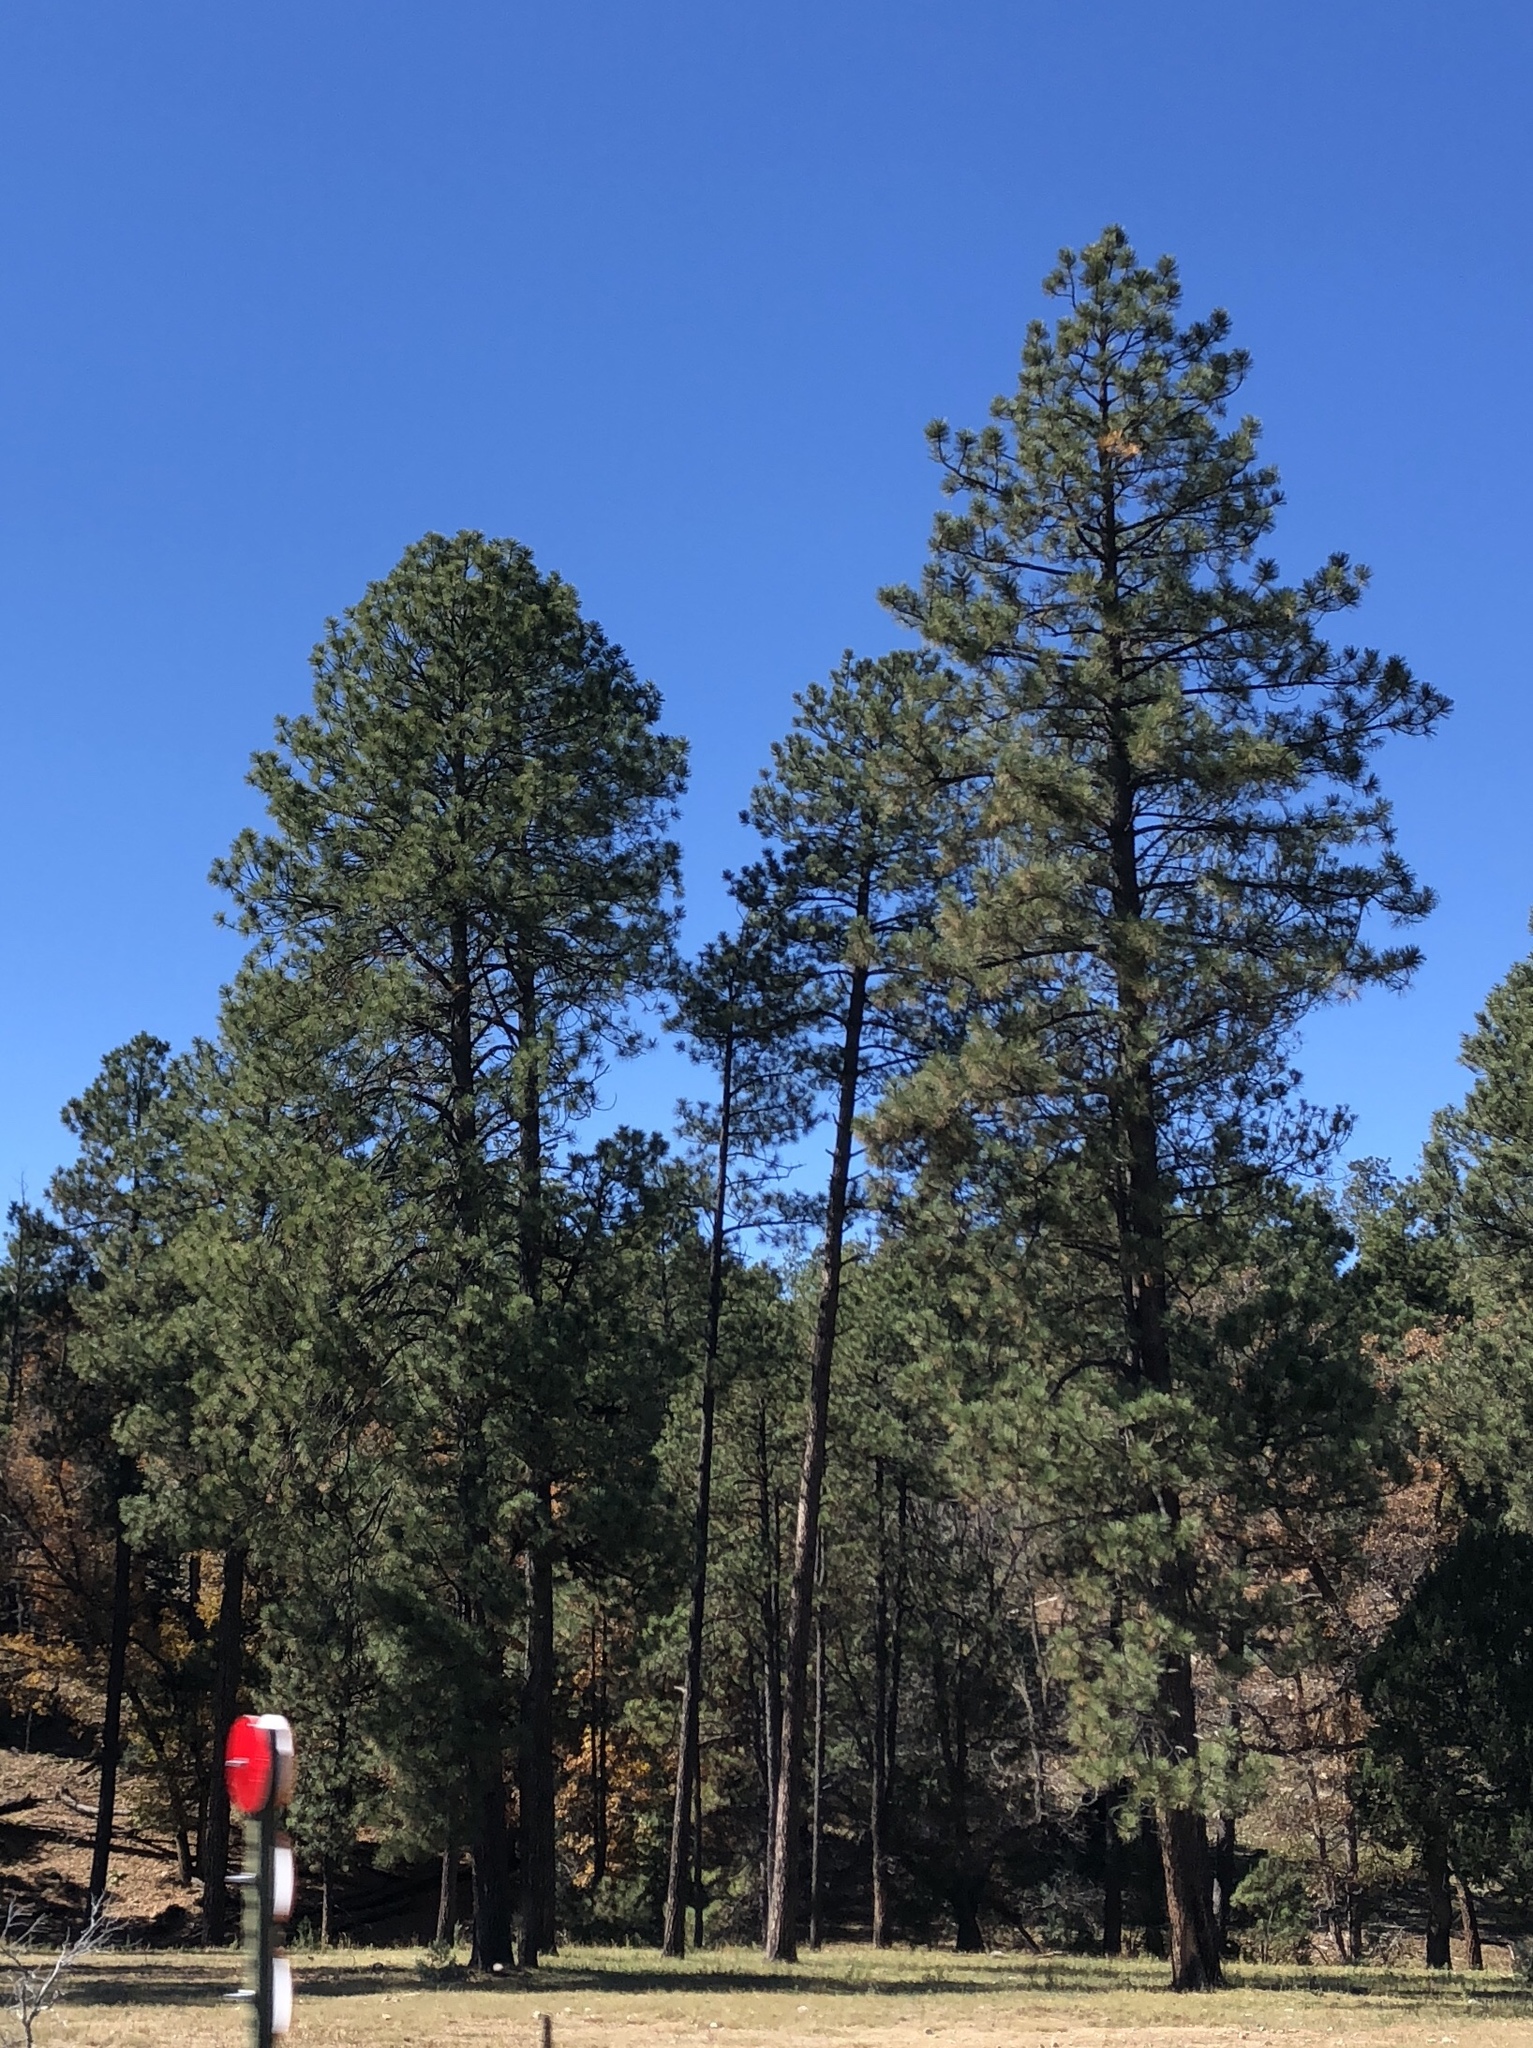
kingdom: Plantae
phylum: Tracheophyta
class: Pinopsida
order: Pinales
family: Pinaceae
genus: Pinus
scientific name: Pinus ponderosa
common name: Western yellow-pine
